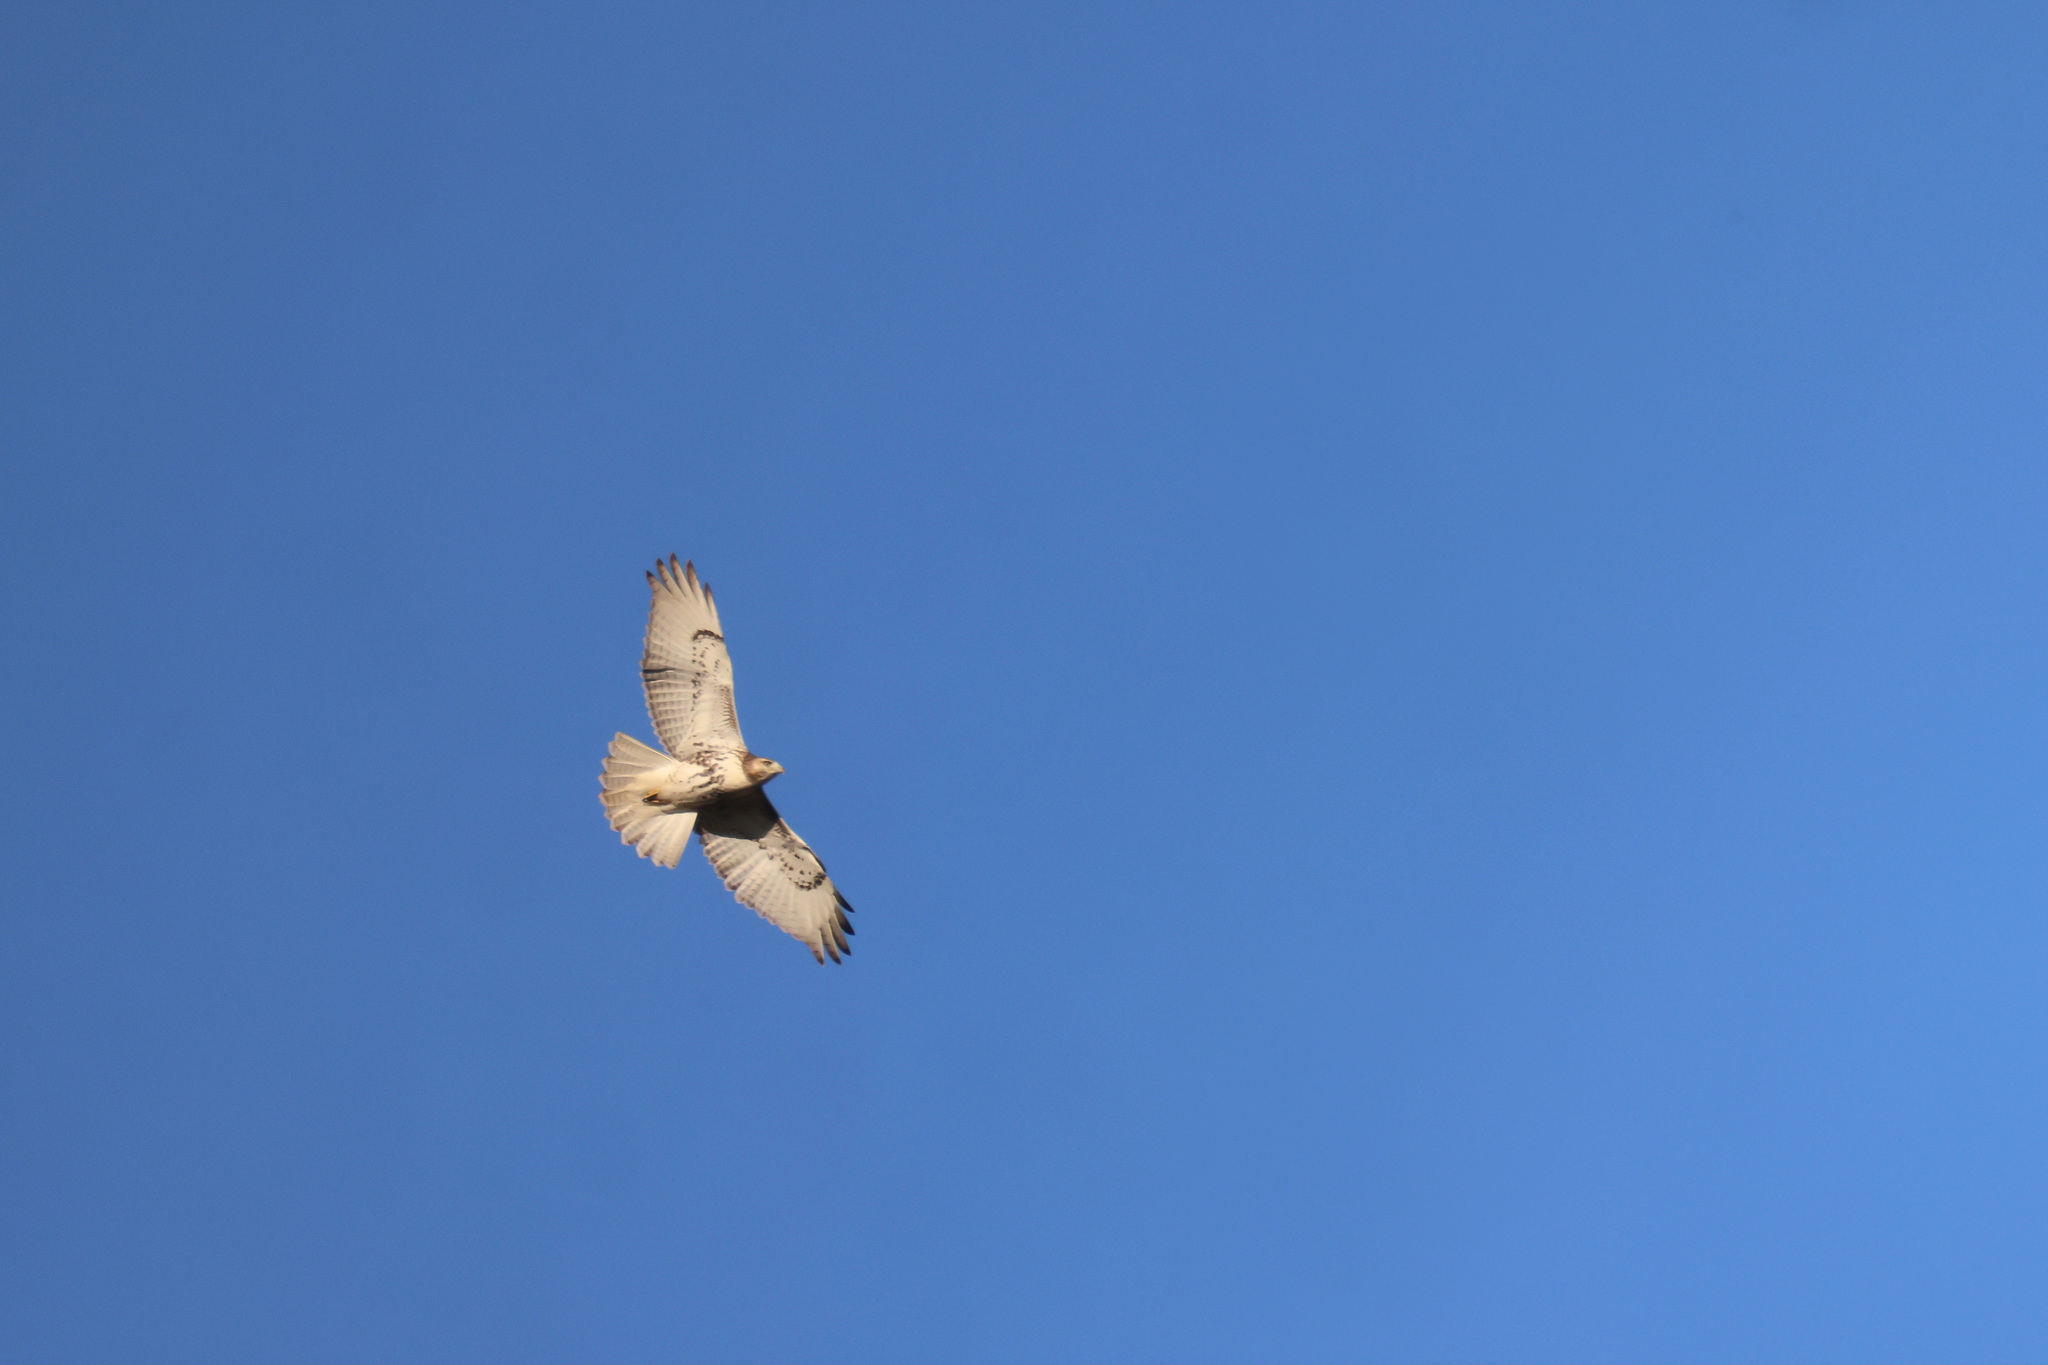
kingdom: Animalia
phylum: Chordata
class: Aves
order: Accipitriformes
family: Accipitridae
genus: Buteo
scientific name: Buteo jamaicensis
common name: Red-tailed hawk
